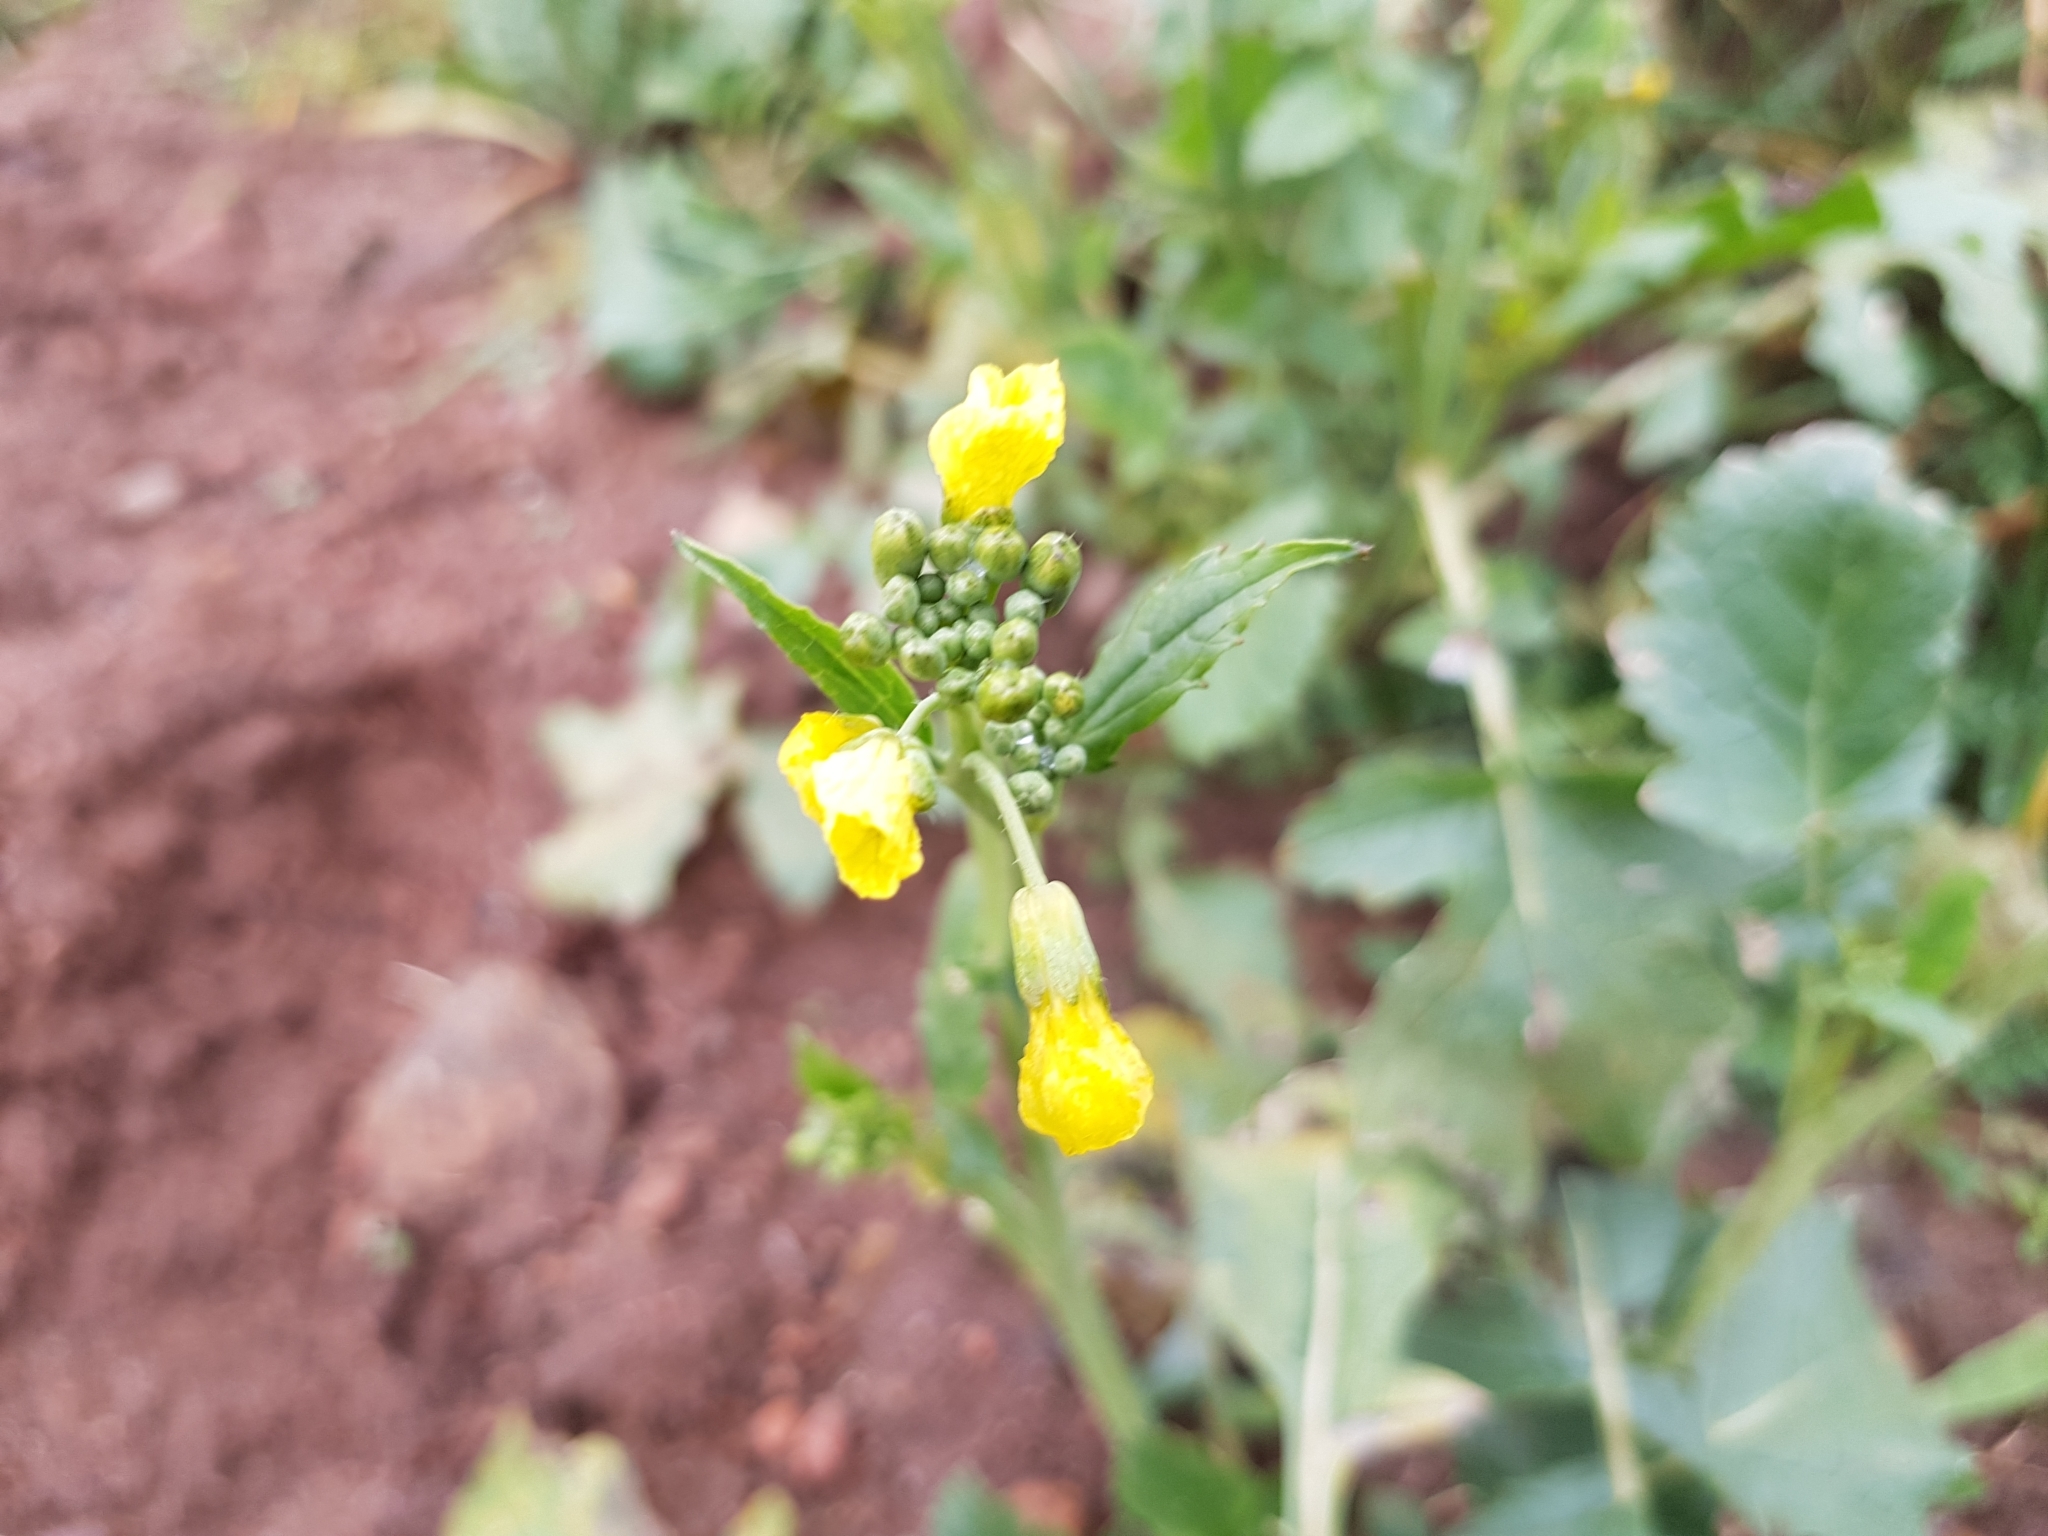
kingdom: Plantae
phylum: Tracheophyta
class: Magnoliopsida
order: Brassicales
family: Brassicaceae
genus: Raphanus
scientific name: Raphanus raphanistrum
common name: Wild radish
